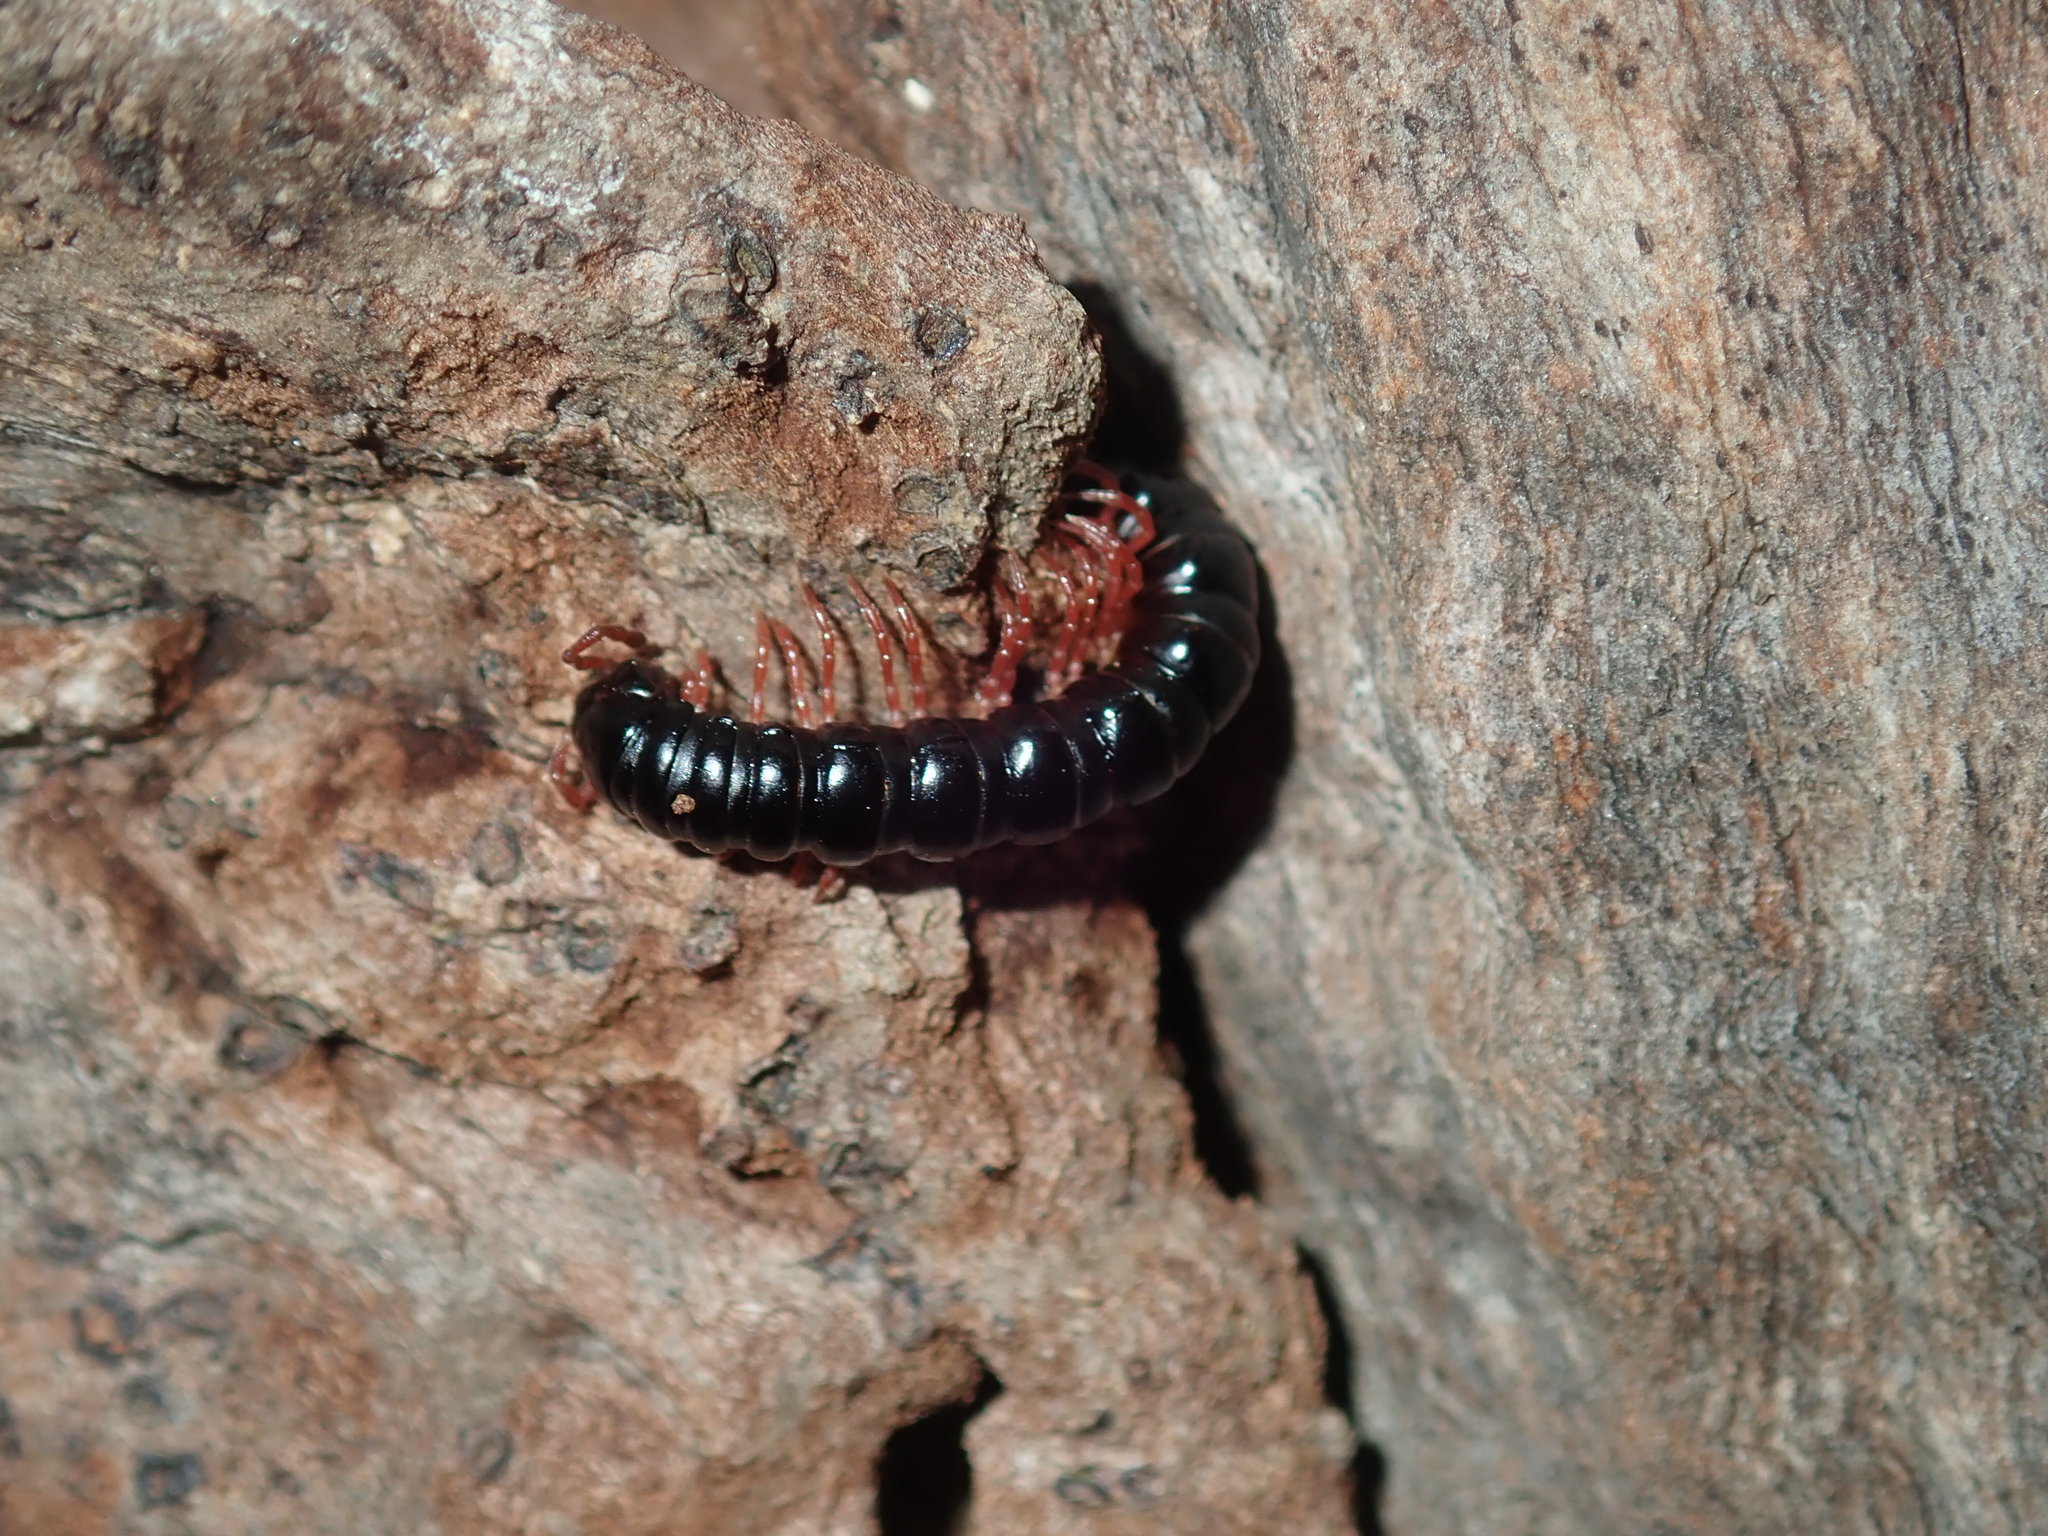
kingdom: Animalia
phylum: Arthropoda
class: Diplopoda
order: Polydesmida
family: Paradoxosomatidae
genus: Heterocladosoma
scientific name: Heterocladosoma
